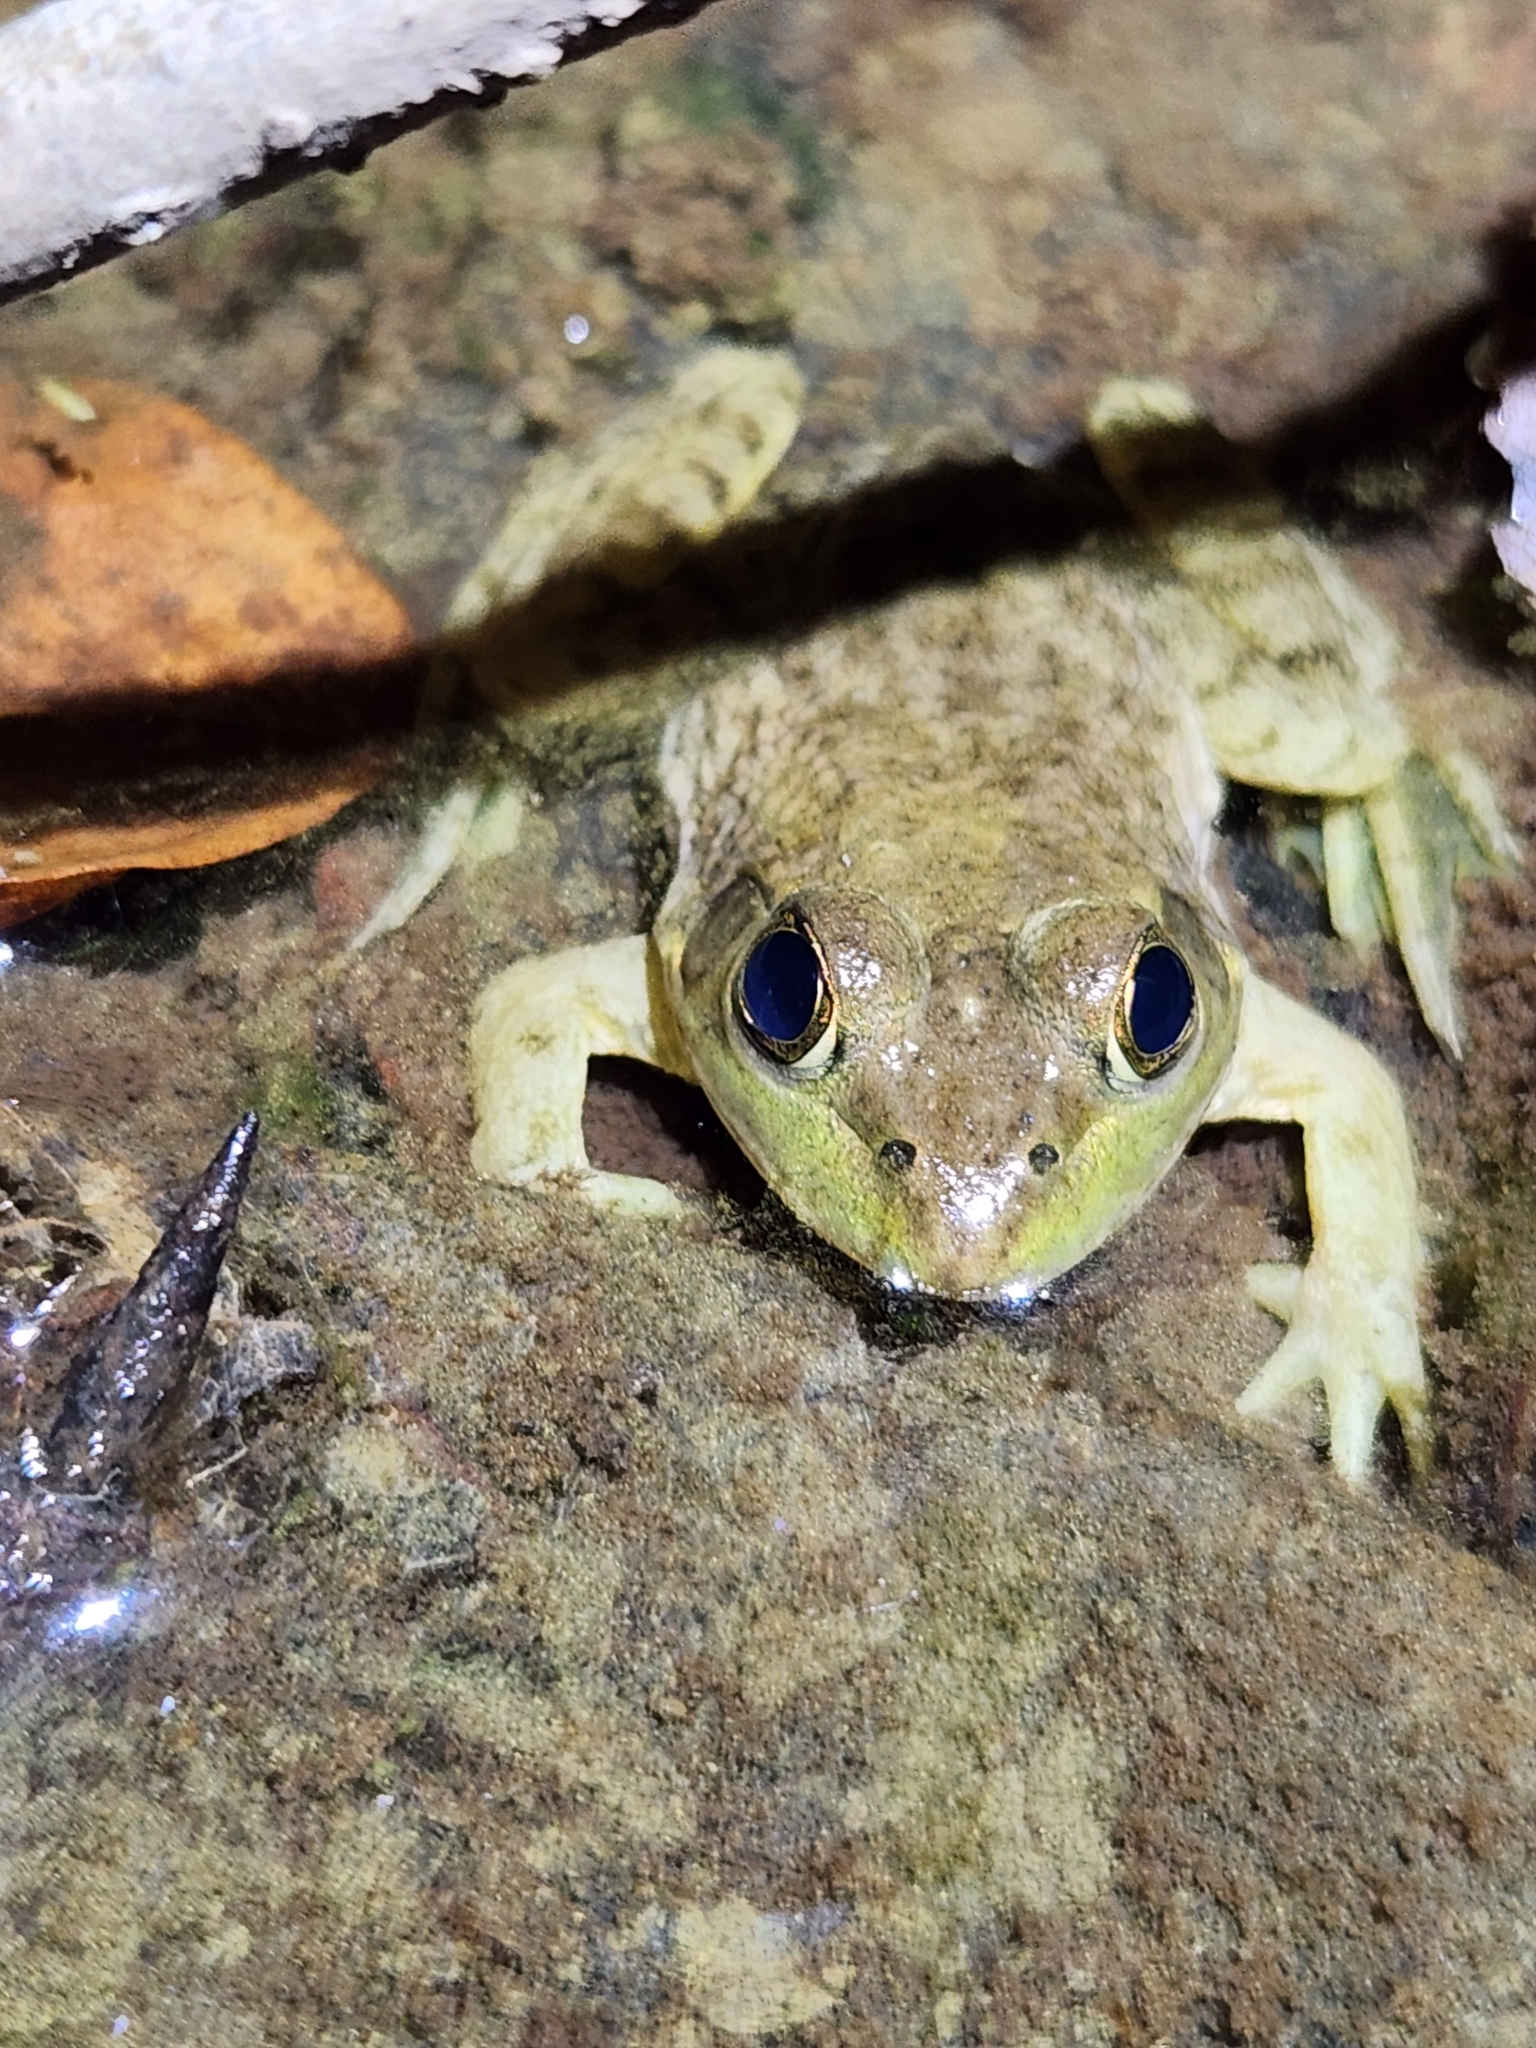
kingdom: Animalia
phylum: Chordata
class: Amphibia
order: Anura
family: Ranidae
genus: Lithobates
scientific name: Lithobates catesbeianus
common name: American bullfrog
